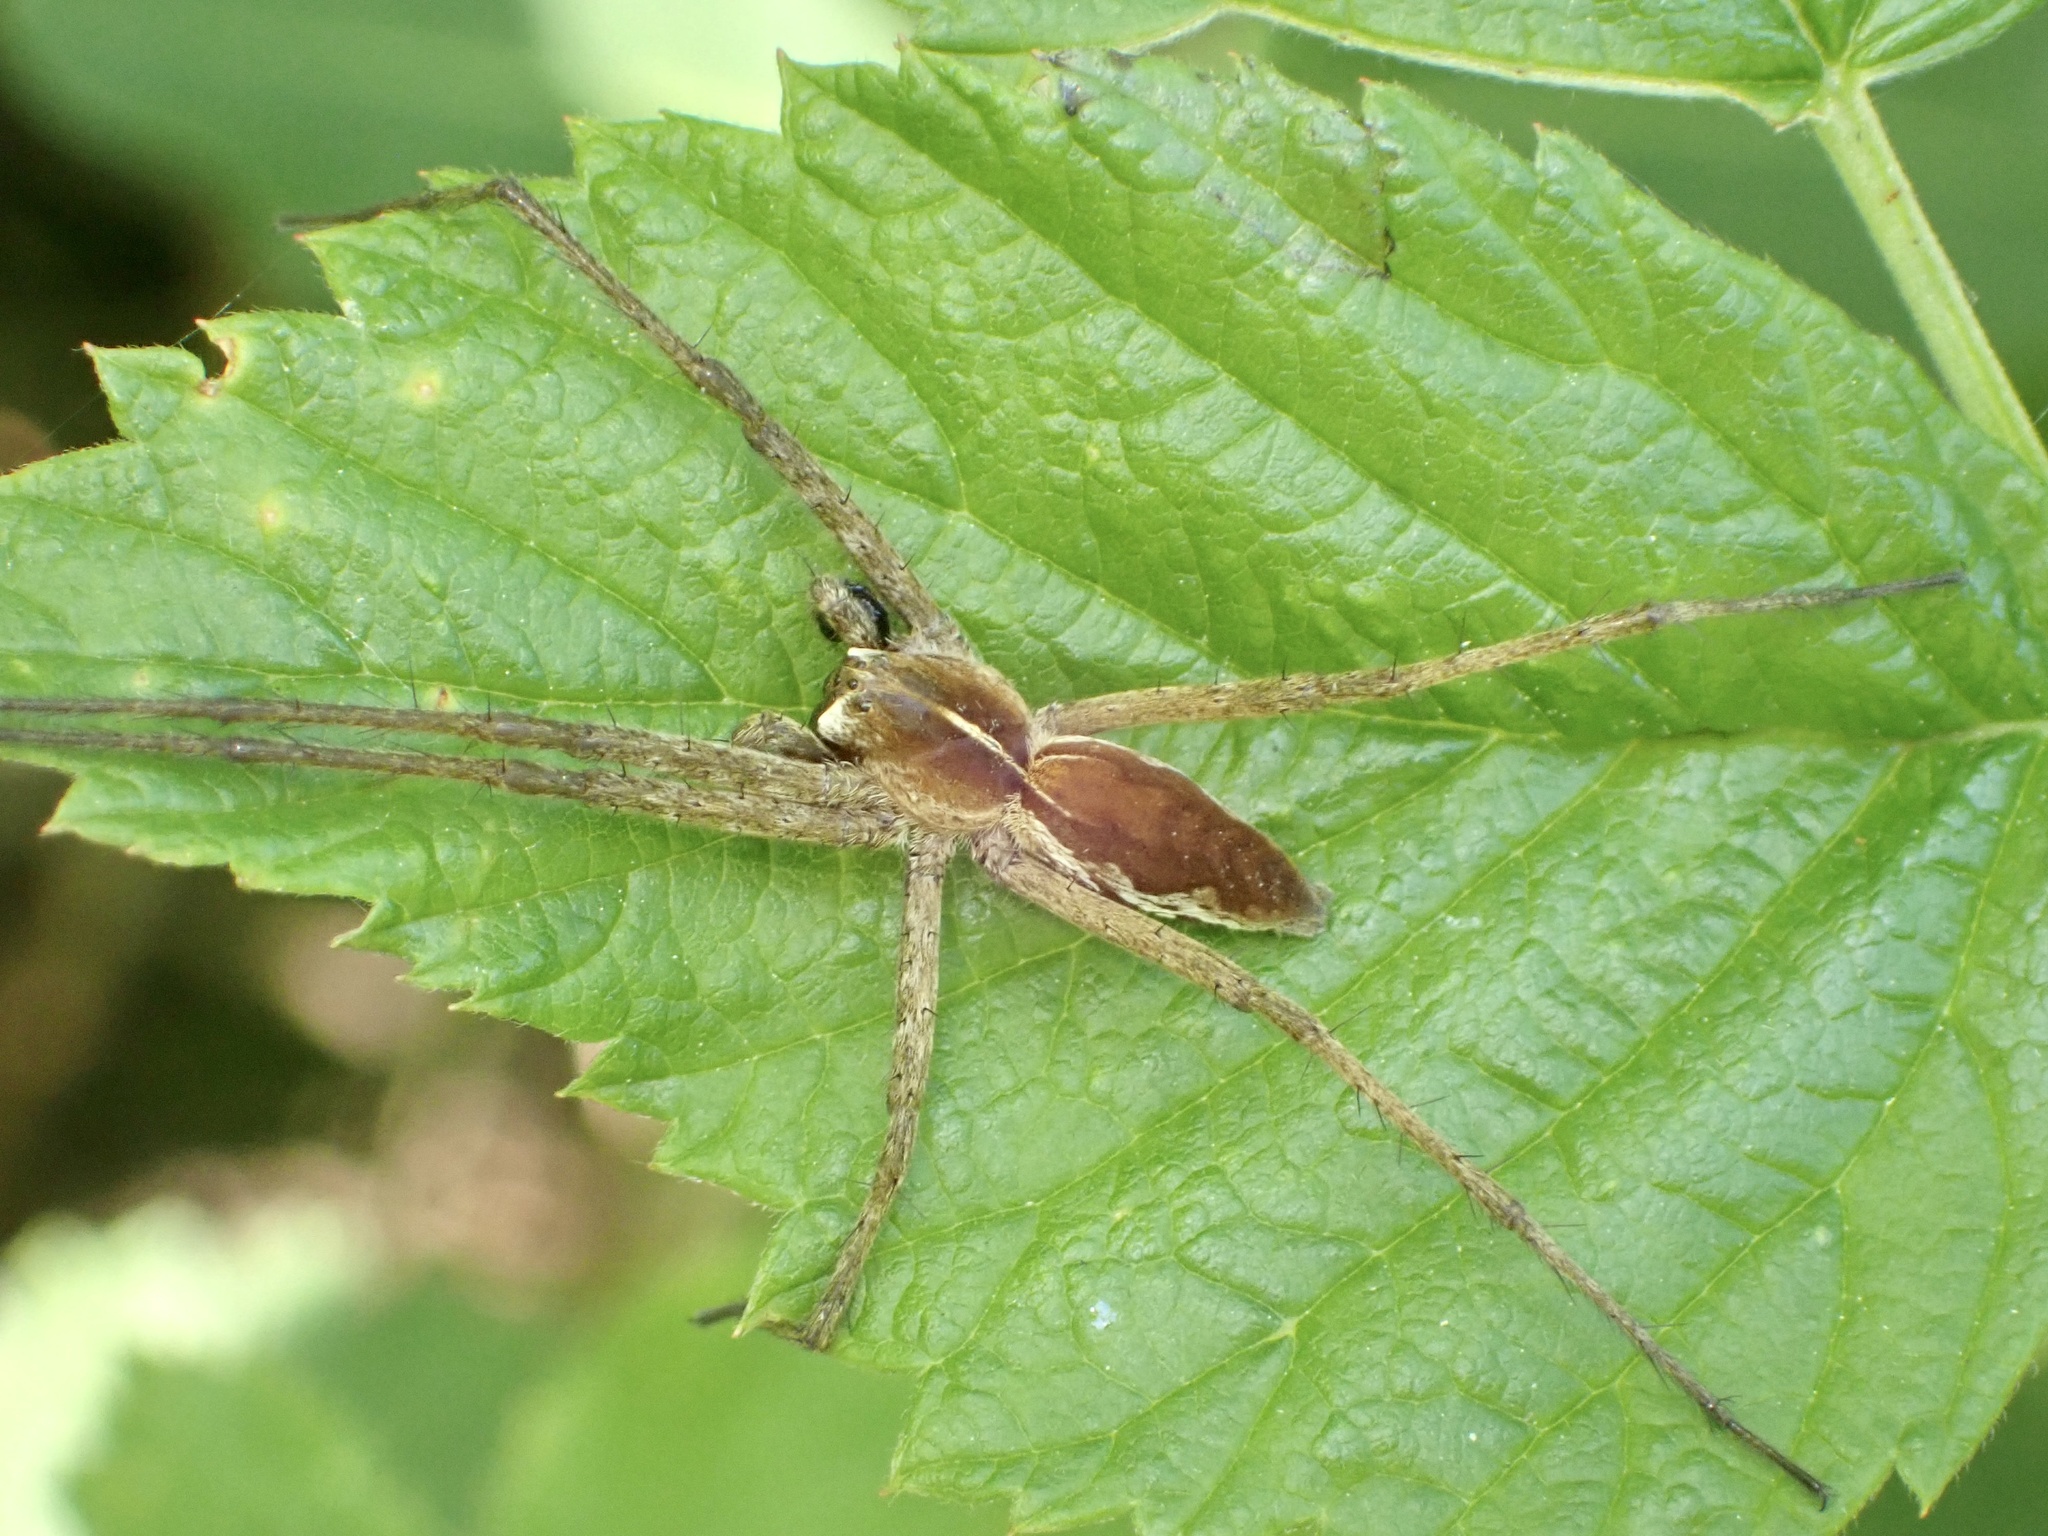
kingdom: Animalia
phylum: Arthropoda
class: Arachnida
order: Araneae
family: Pisauridae
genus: Pisaura
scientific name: Pisaura mirabilis
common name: Tent spider
